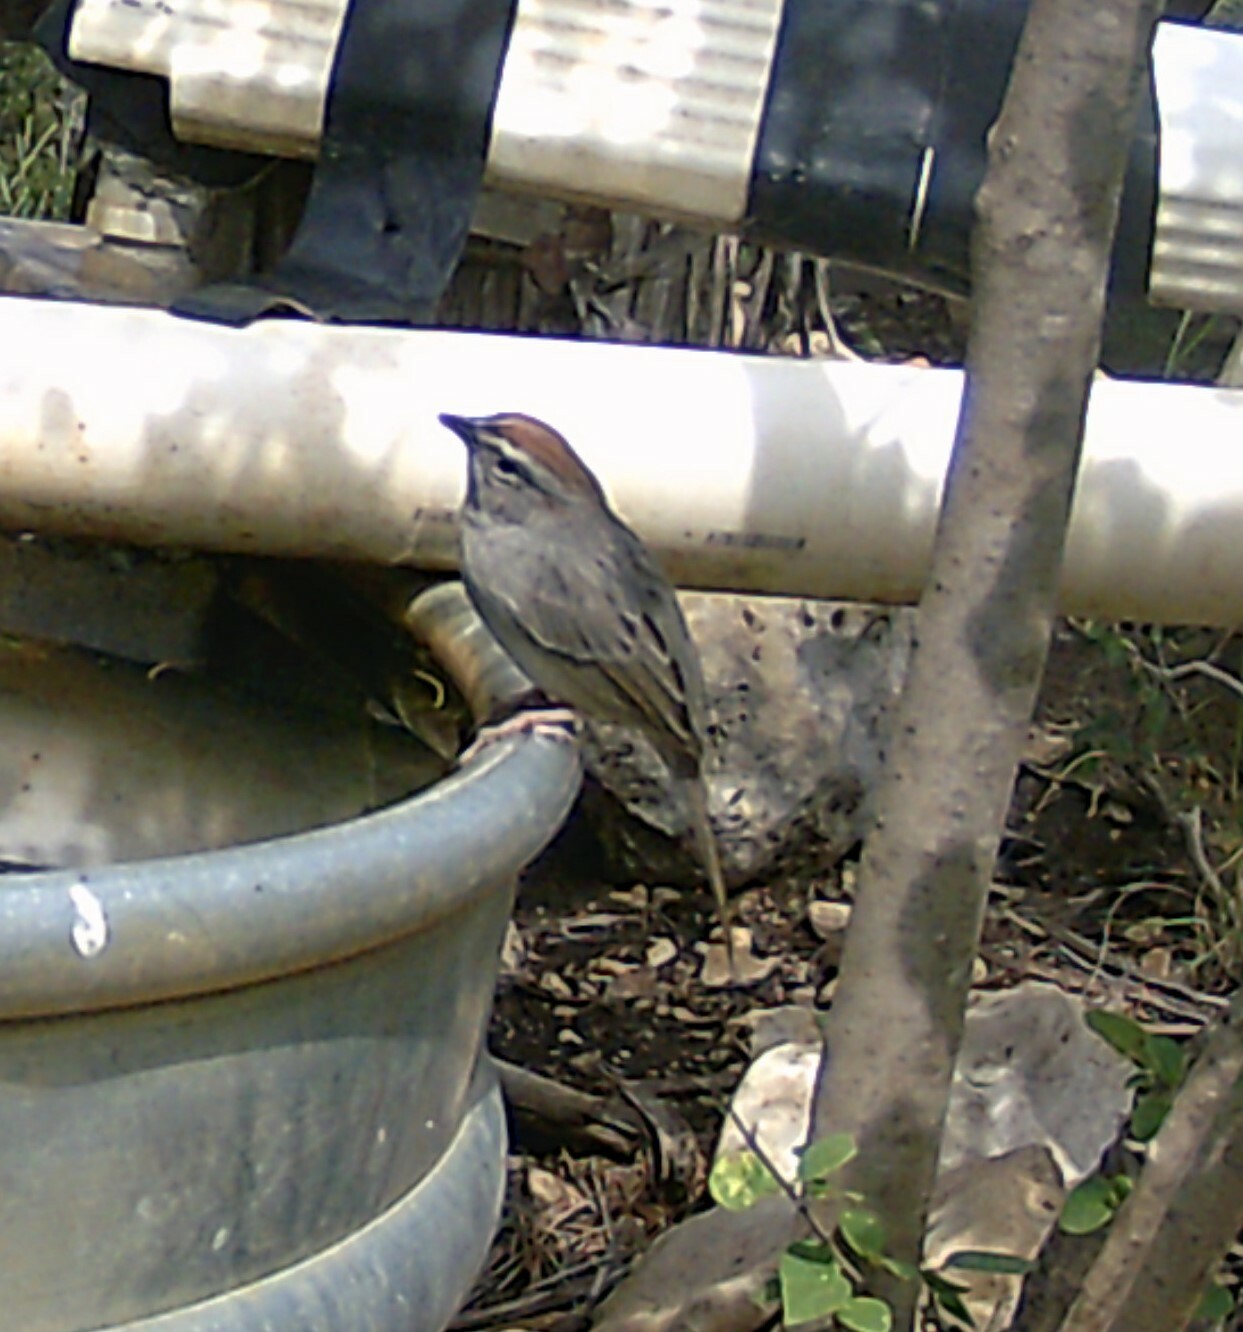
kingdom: Animalia
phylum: Chordata
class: Aves
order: Passeriformes
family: Passerellidae
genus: Aimophila
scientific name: Aimophila ruficeps
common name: Rufous-crowned sparrow
